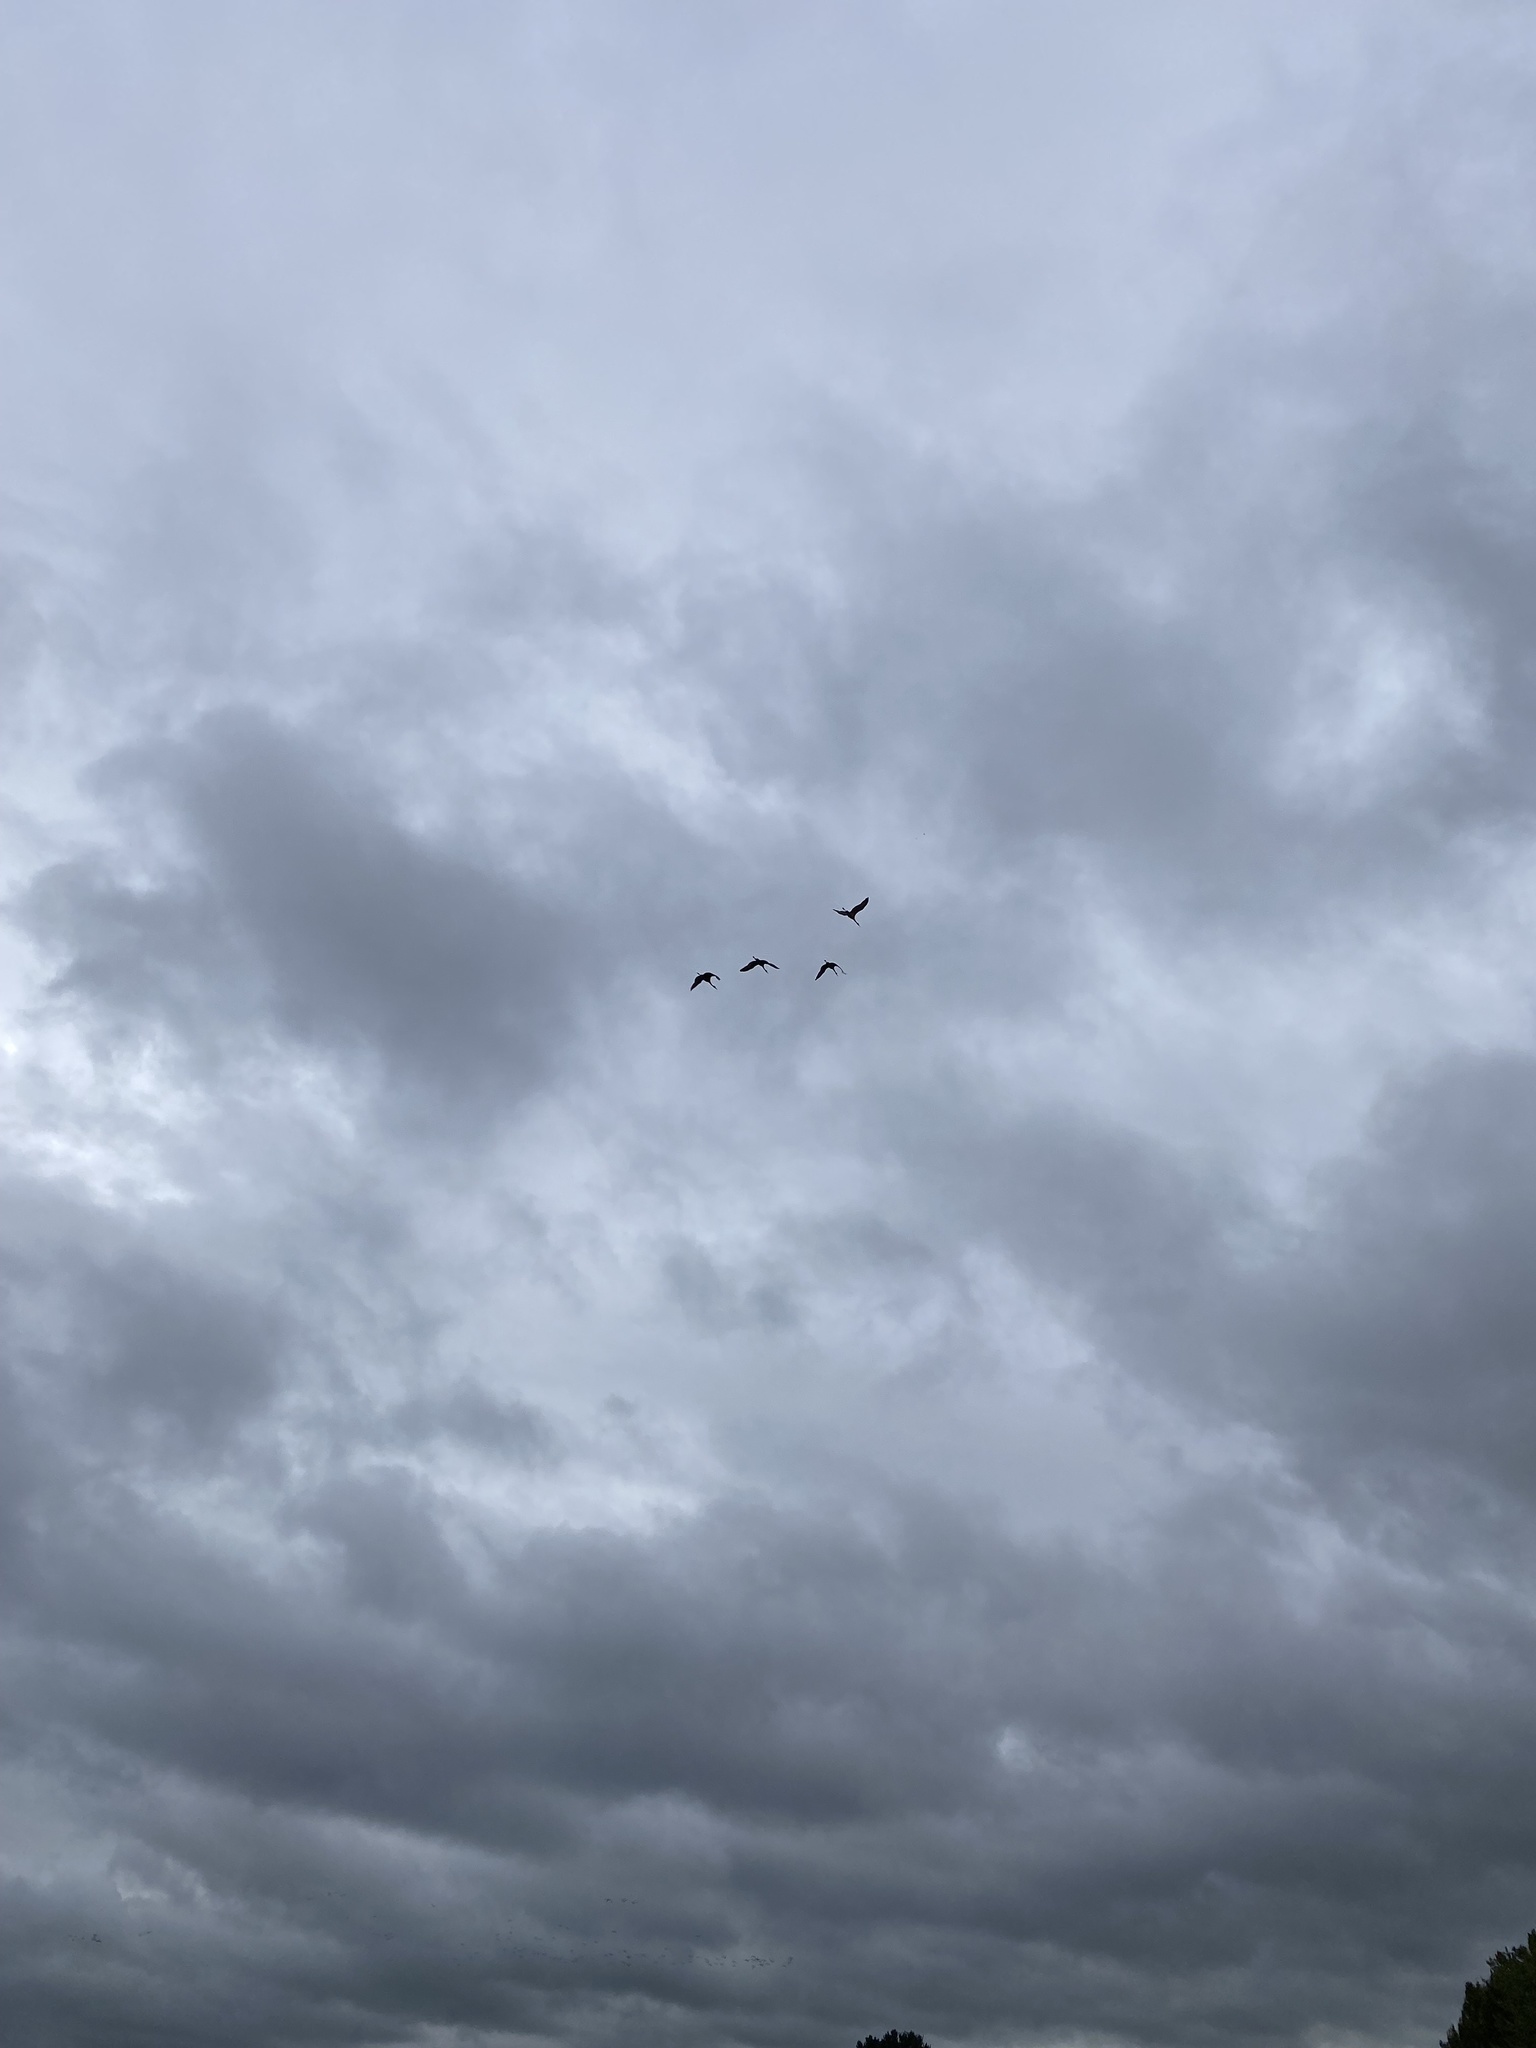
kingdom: Animalia
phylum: Chordata
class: Aves
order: Gruiformes
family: Gruidae
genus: Grus
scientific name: Grus canadensis
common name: Sandhill crane
